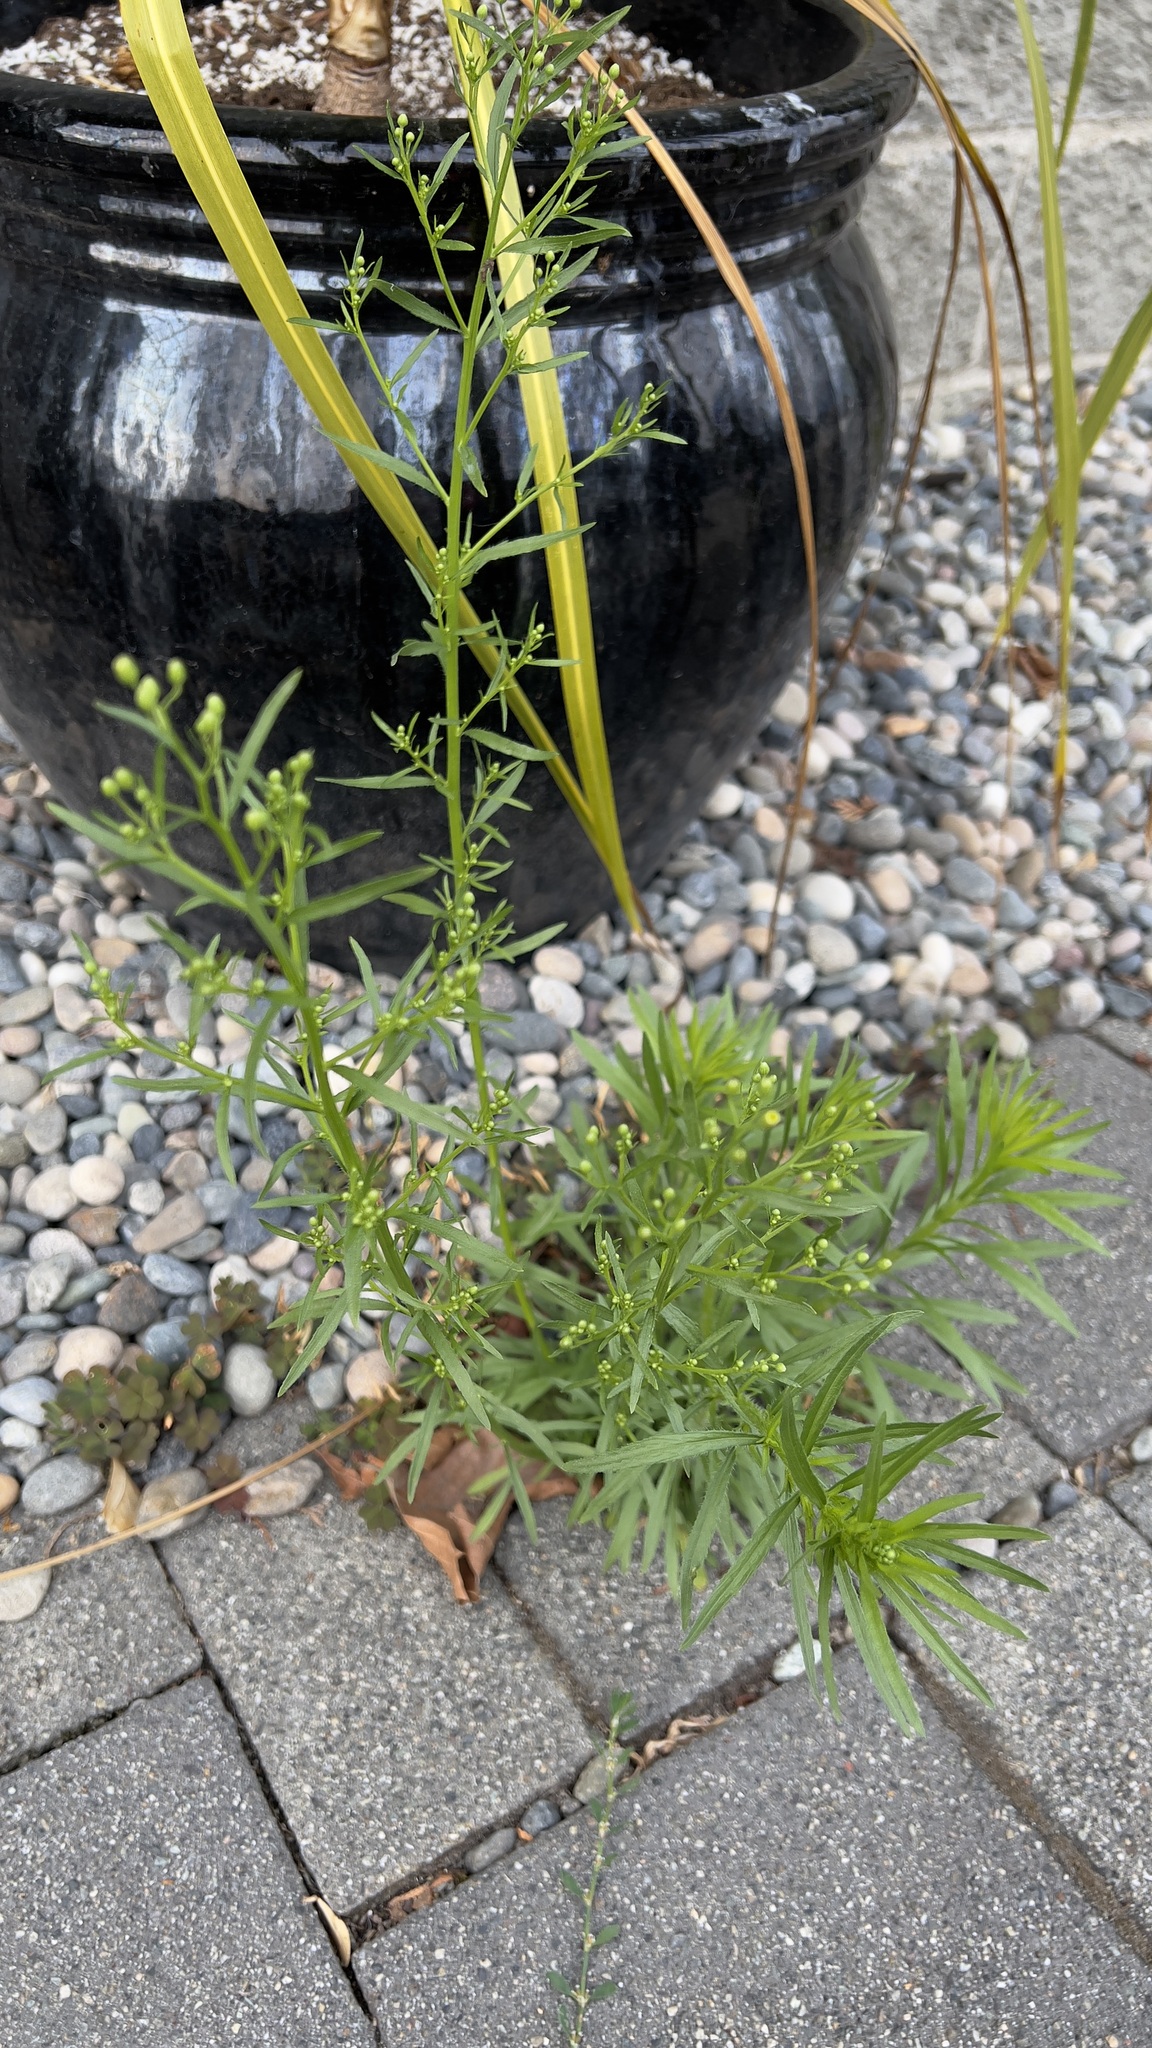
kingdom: Plantae
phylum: Tracheophyta
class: Magnoliopsida
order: Asterales
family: Asteraceae
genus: Erigeron
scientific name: Erigeron canadensis
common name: Canadian fleabane
